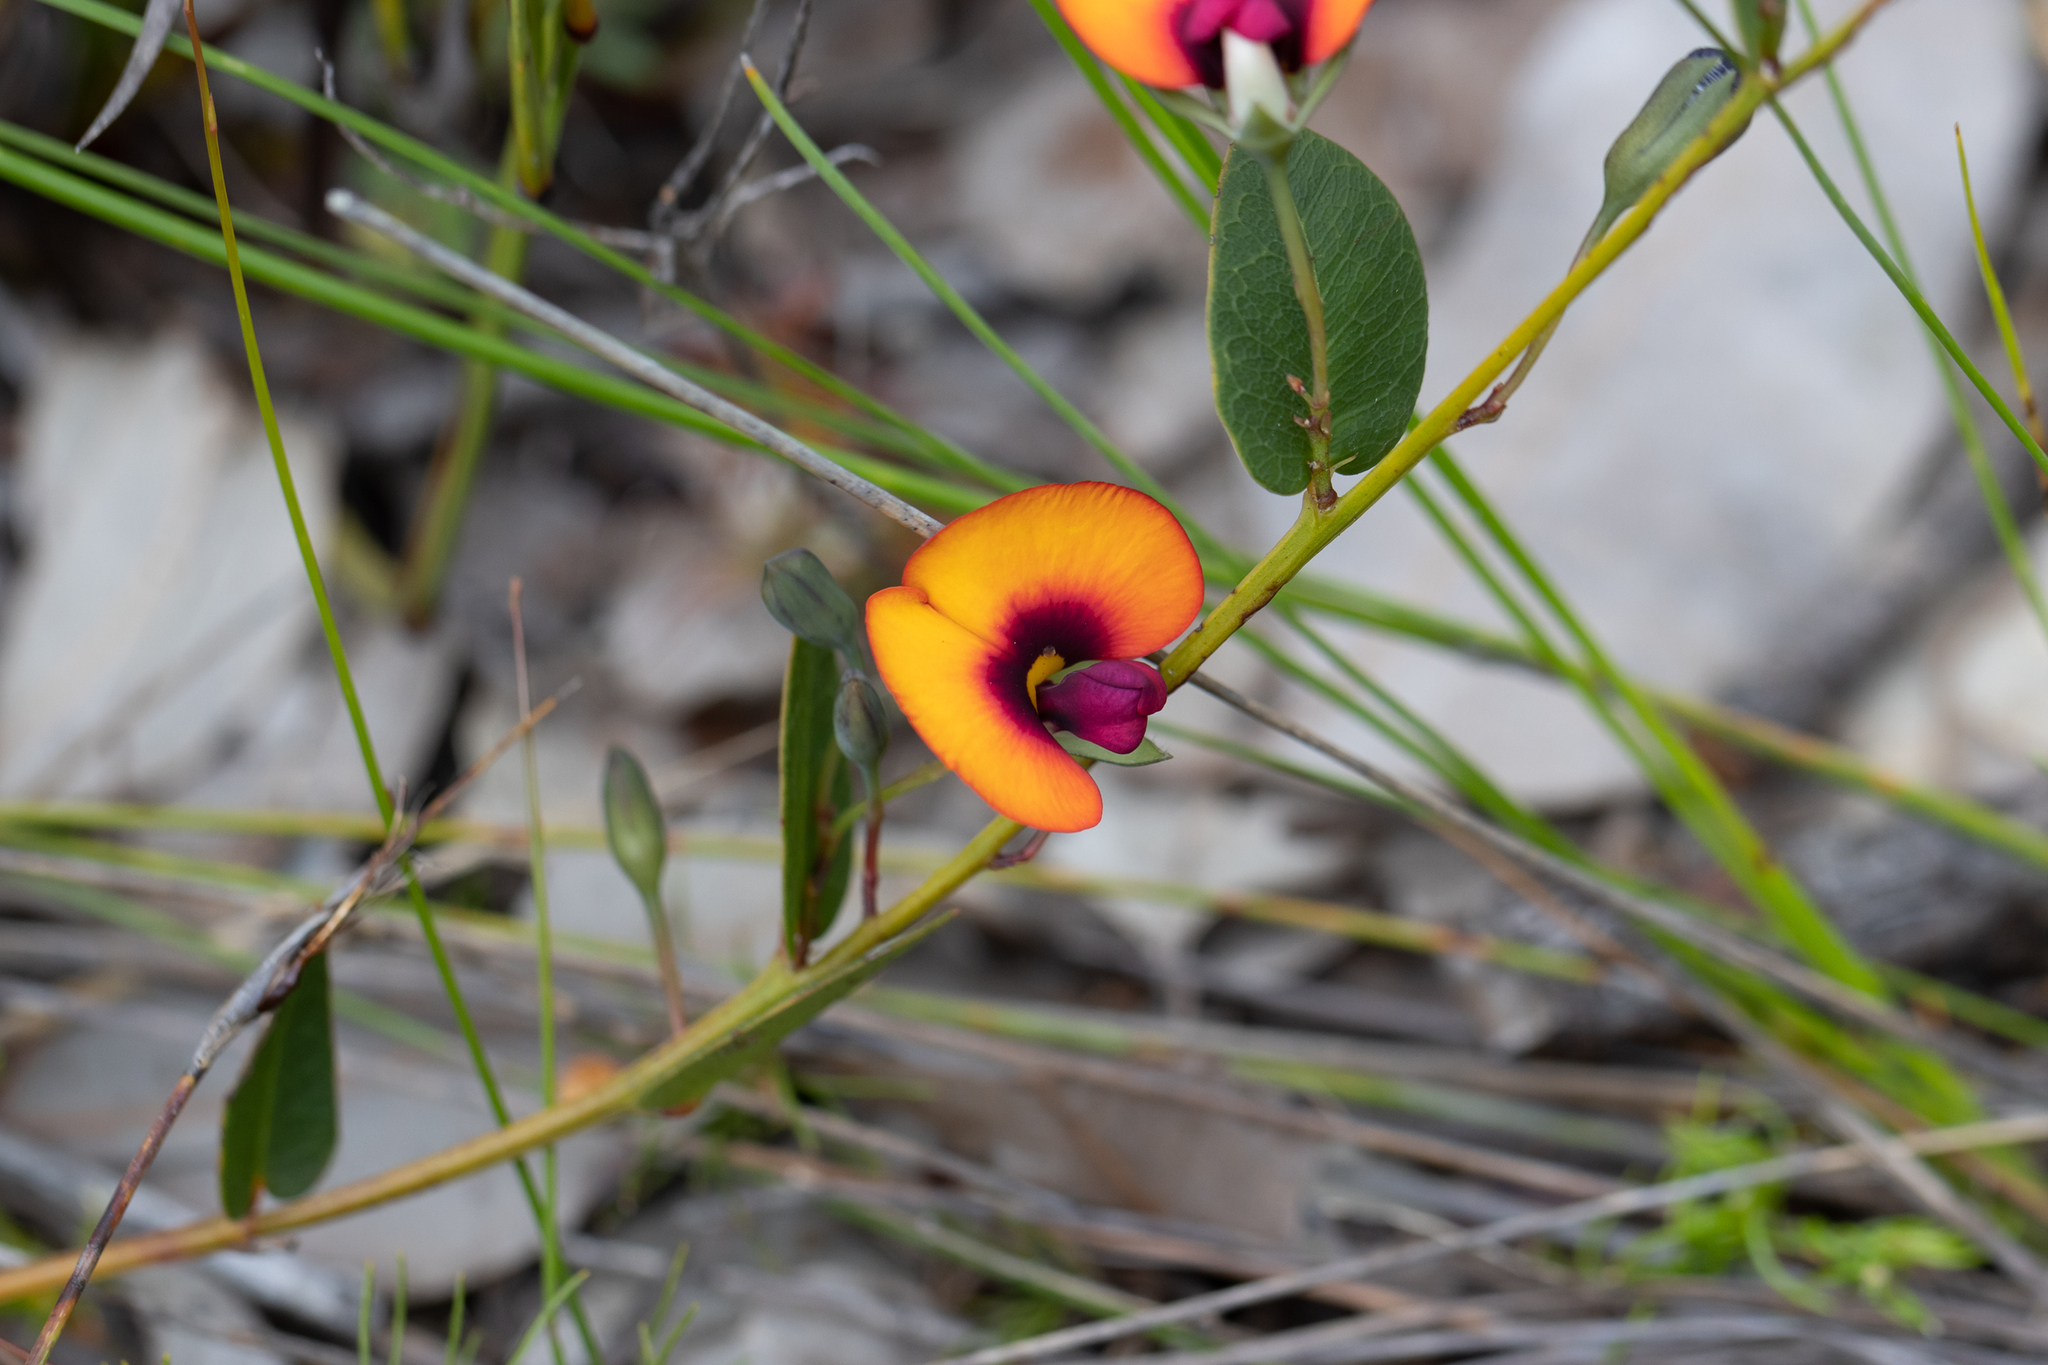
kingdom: Plantae
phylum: Tracheophyta
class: Magnoliopsida
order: Fabales
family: Fabaceae
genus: Gompholobium
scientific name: Gompholobium ovatum
